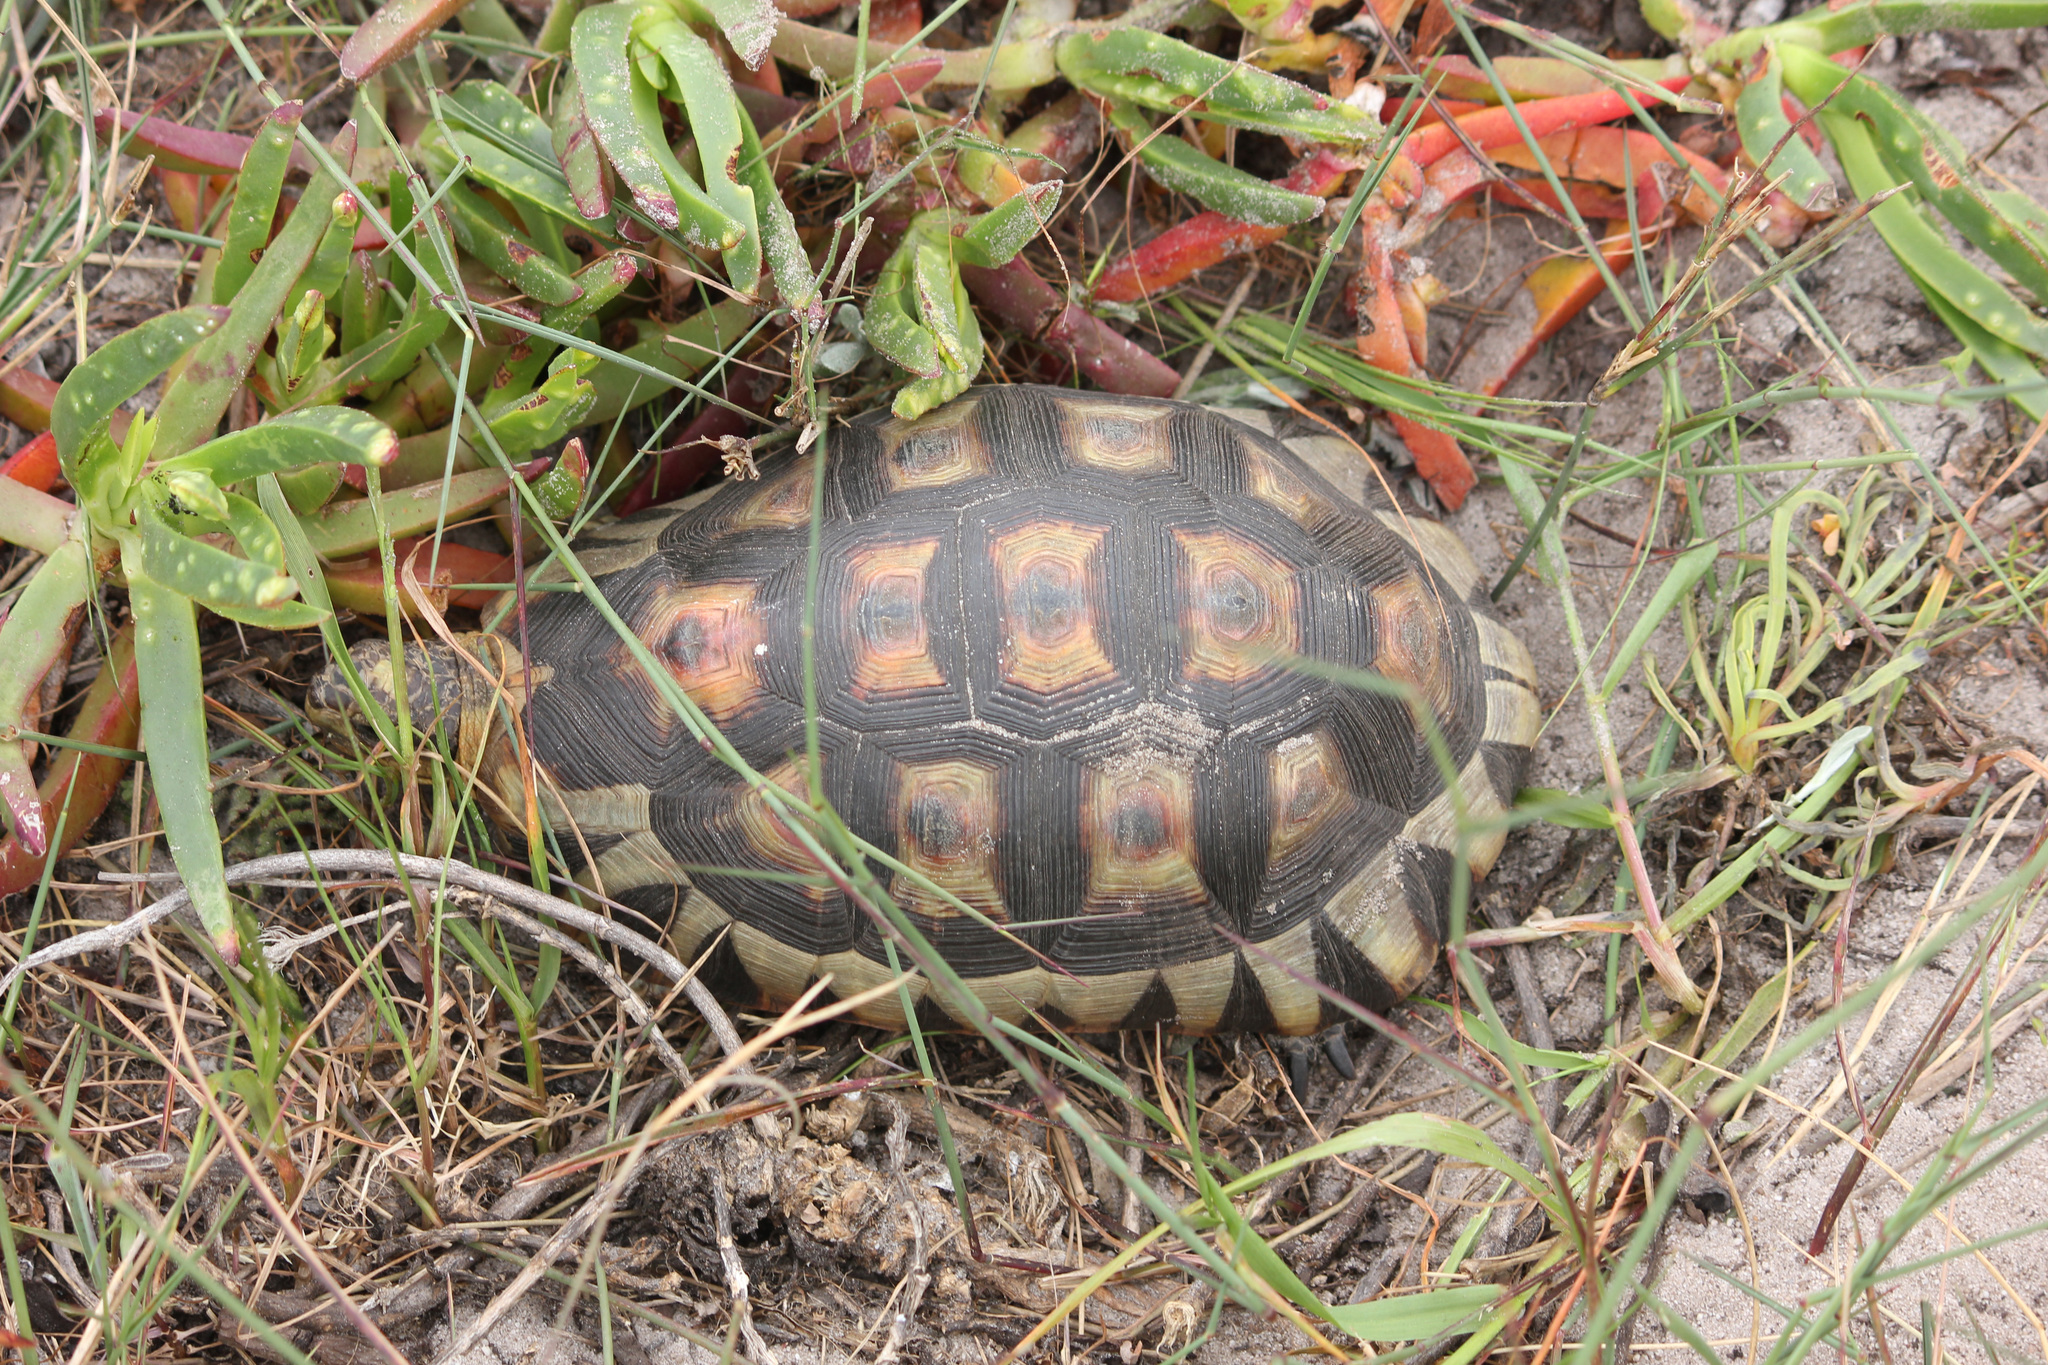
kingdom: Animalia
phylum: Chordata
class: Testudines
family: Testudinidae
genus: Chersina
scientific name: Chersina angulata
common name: South african bowsprit tortoise
